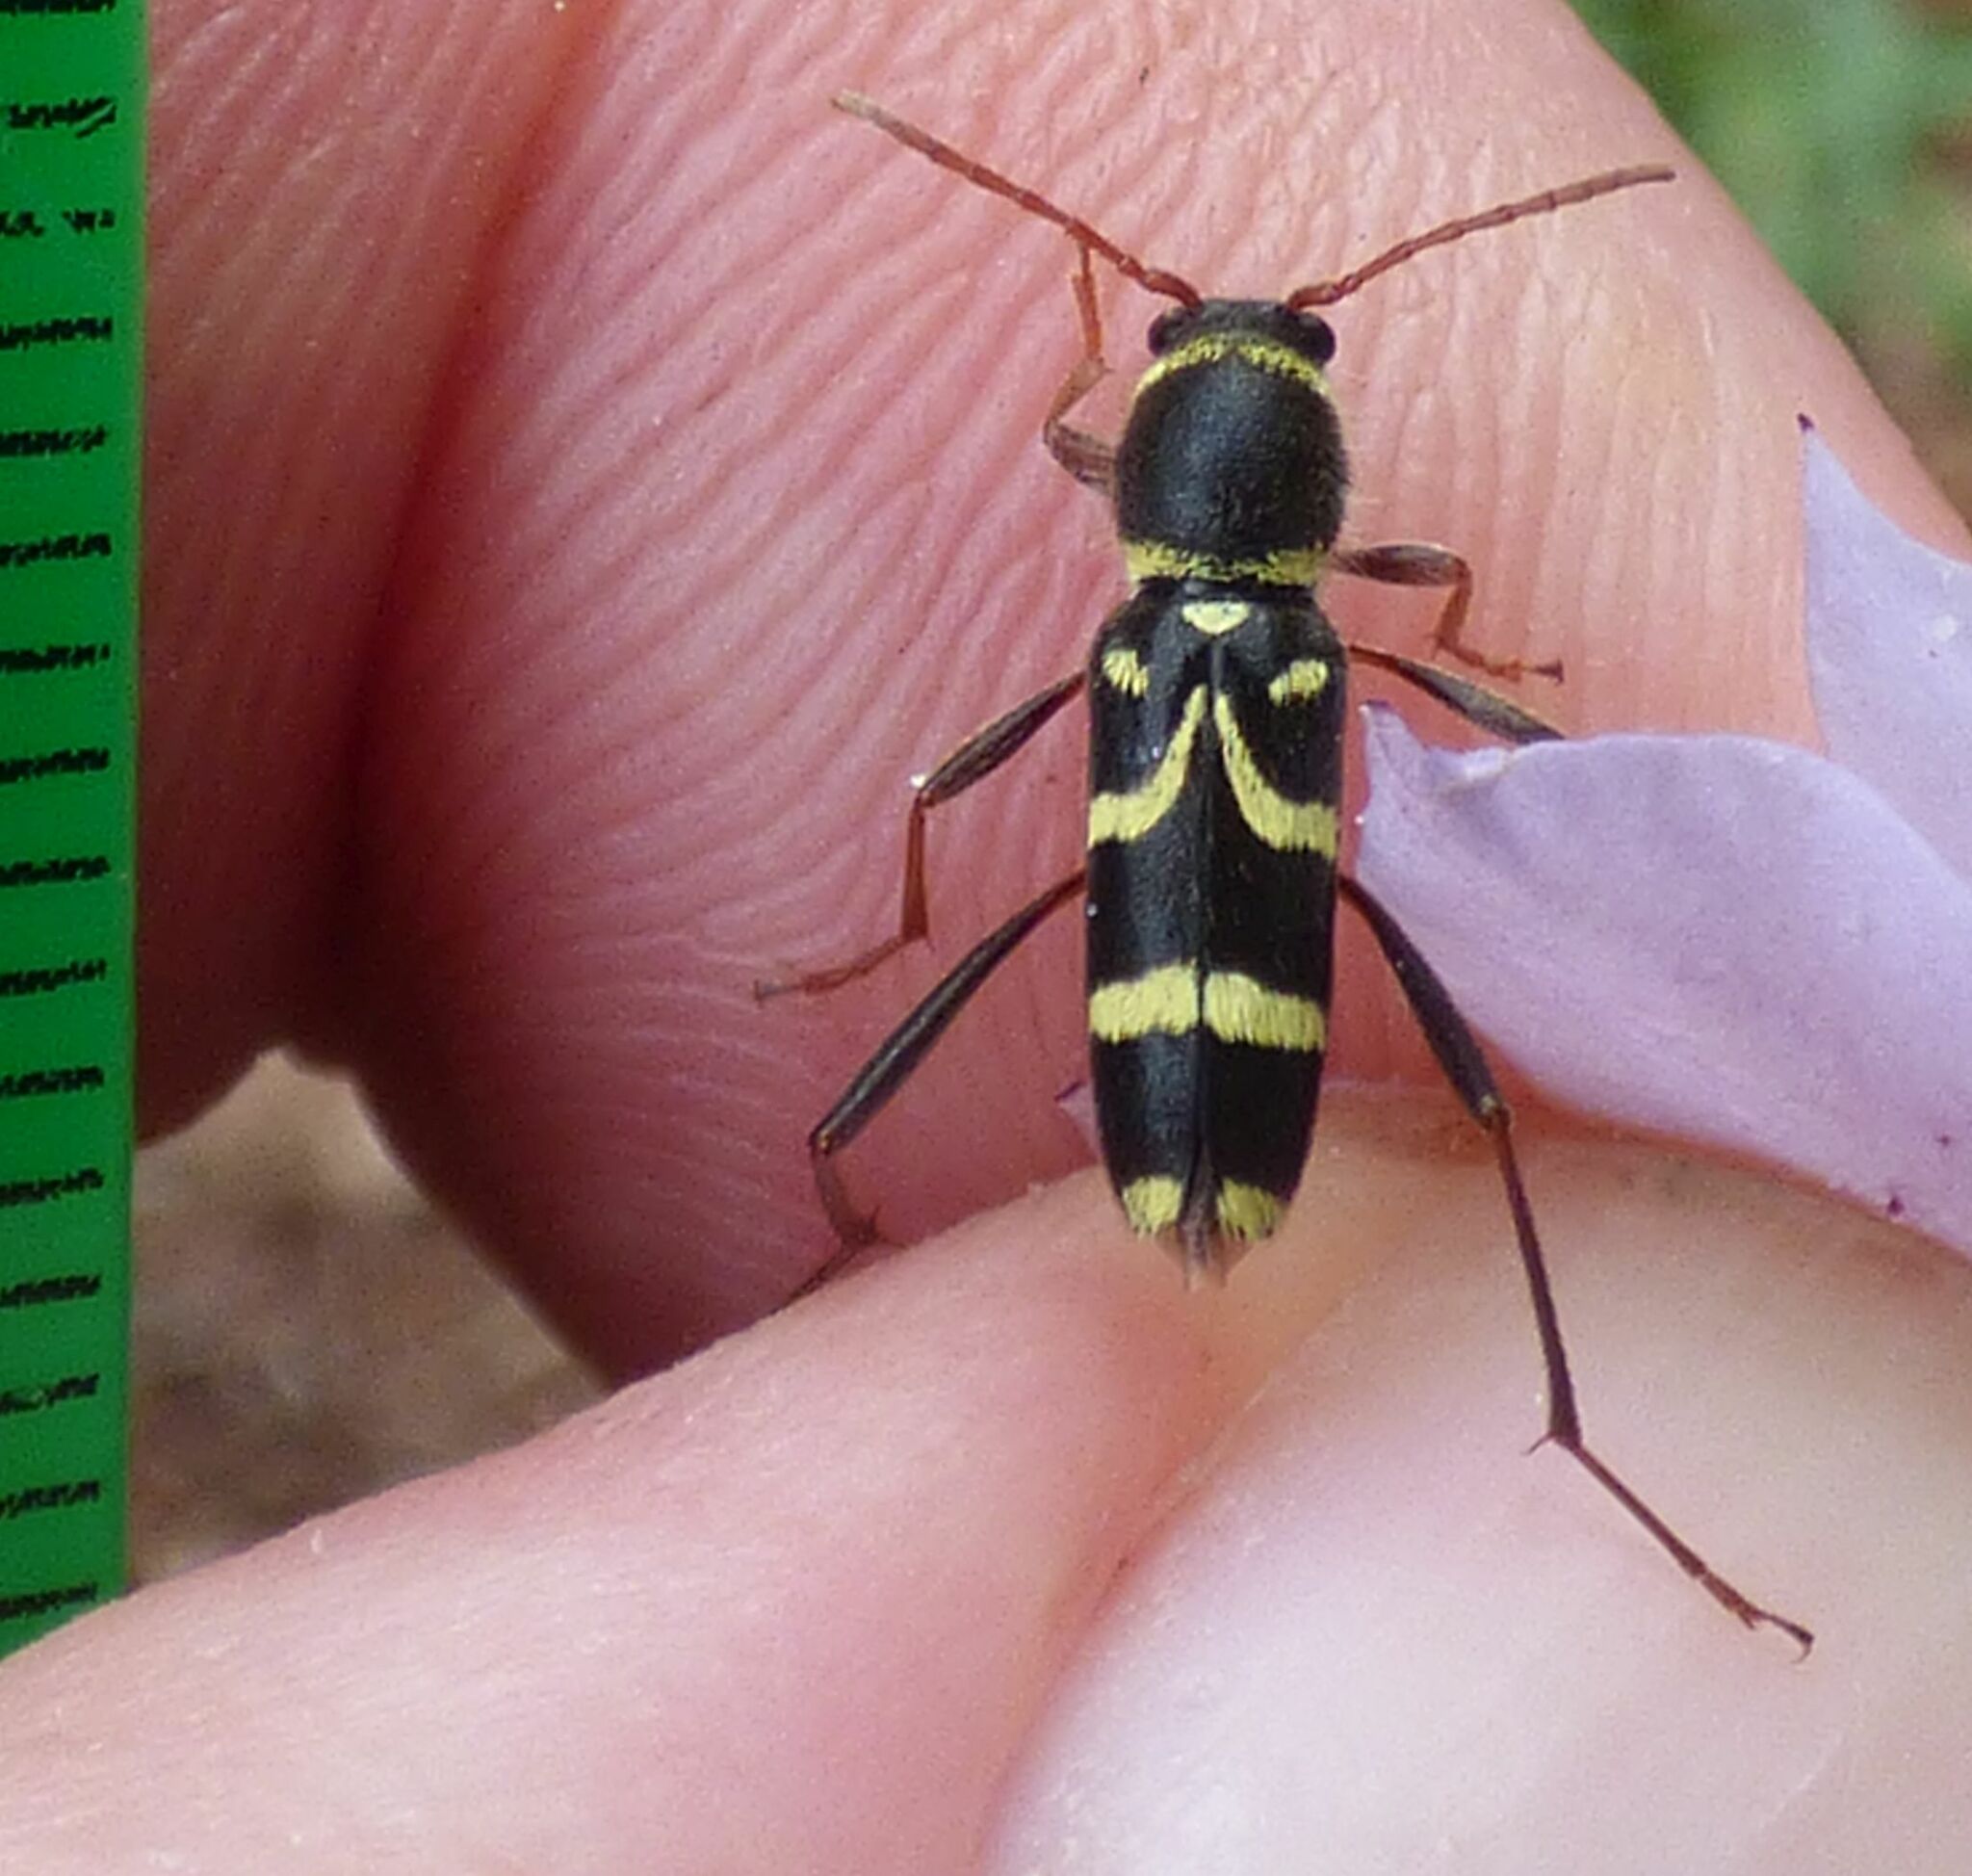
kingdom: Animalia
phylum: Arthropoda
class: Insecta
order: Coleoptera
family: Cerambycidae
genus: Clytus
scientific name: Clytus rhamni
